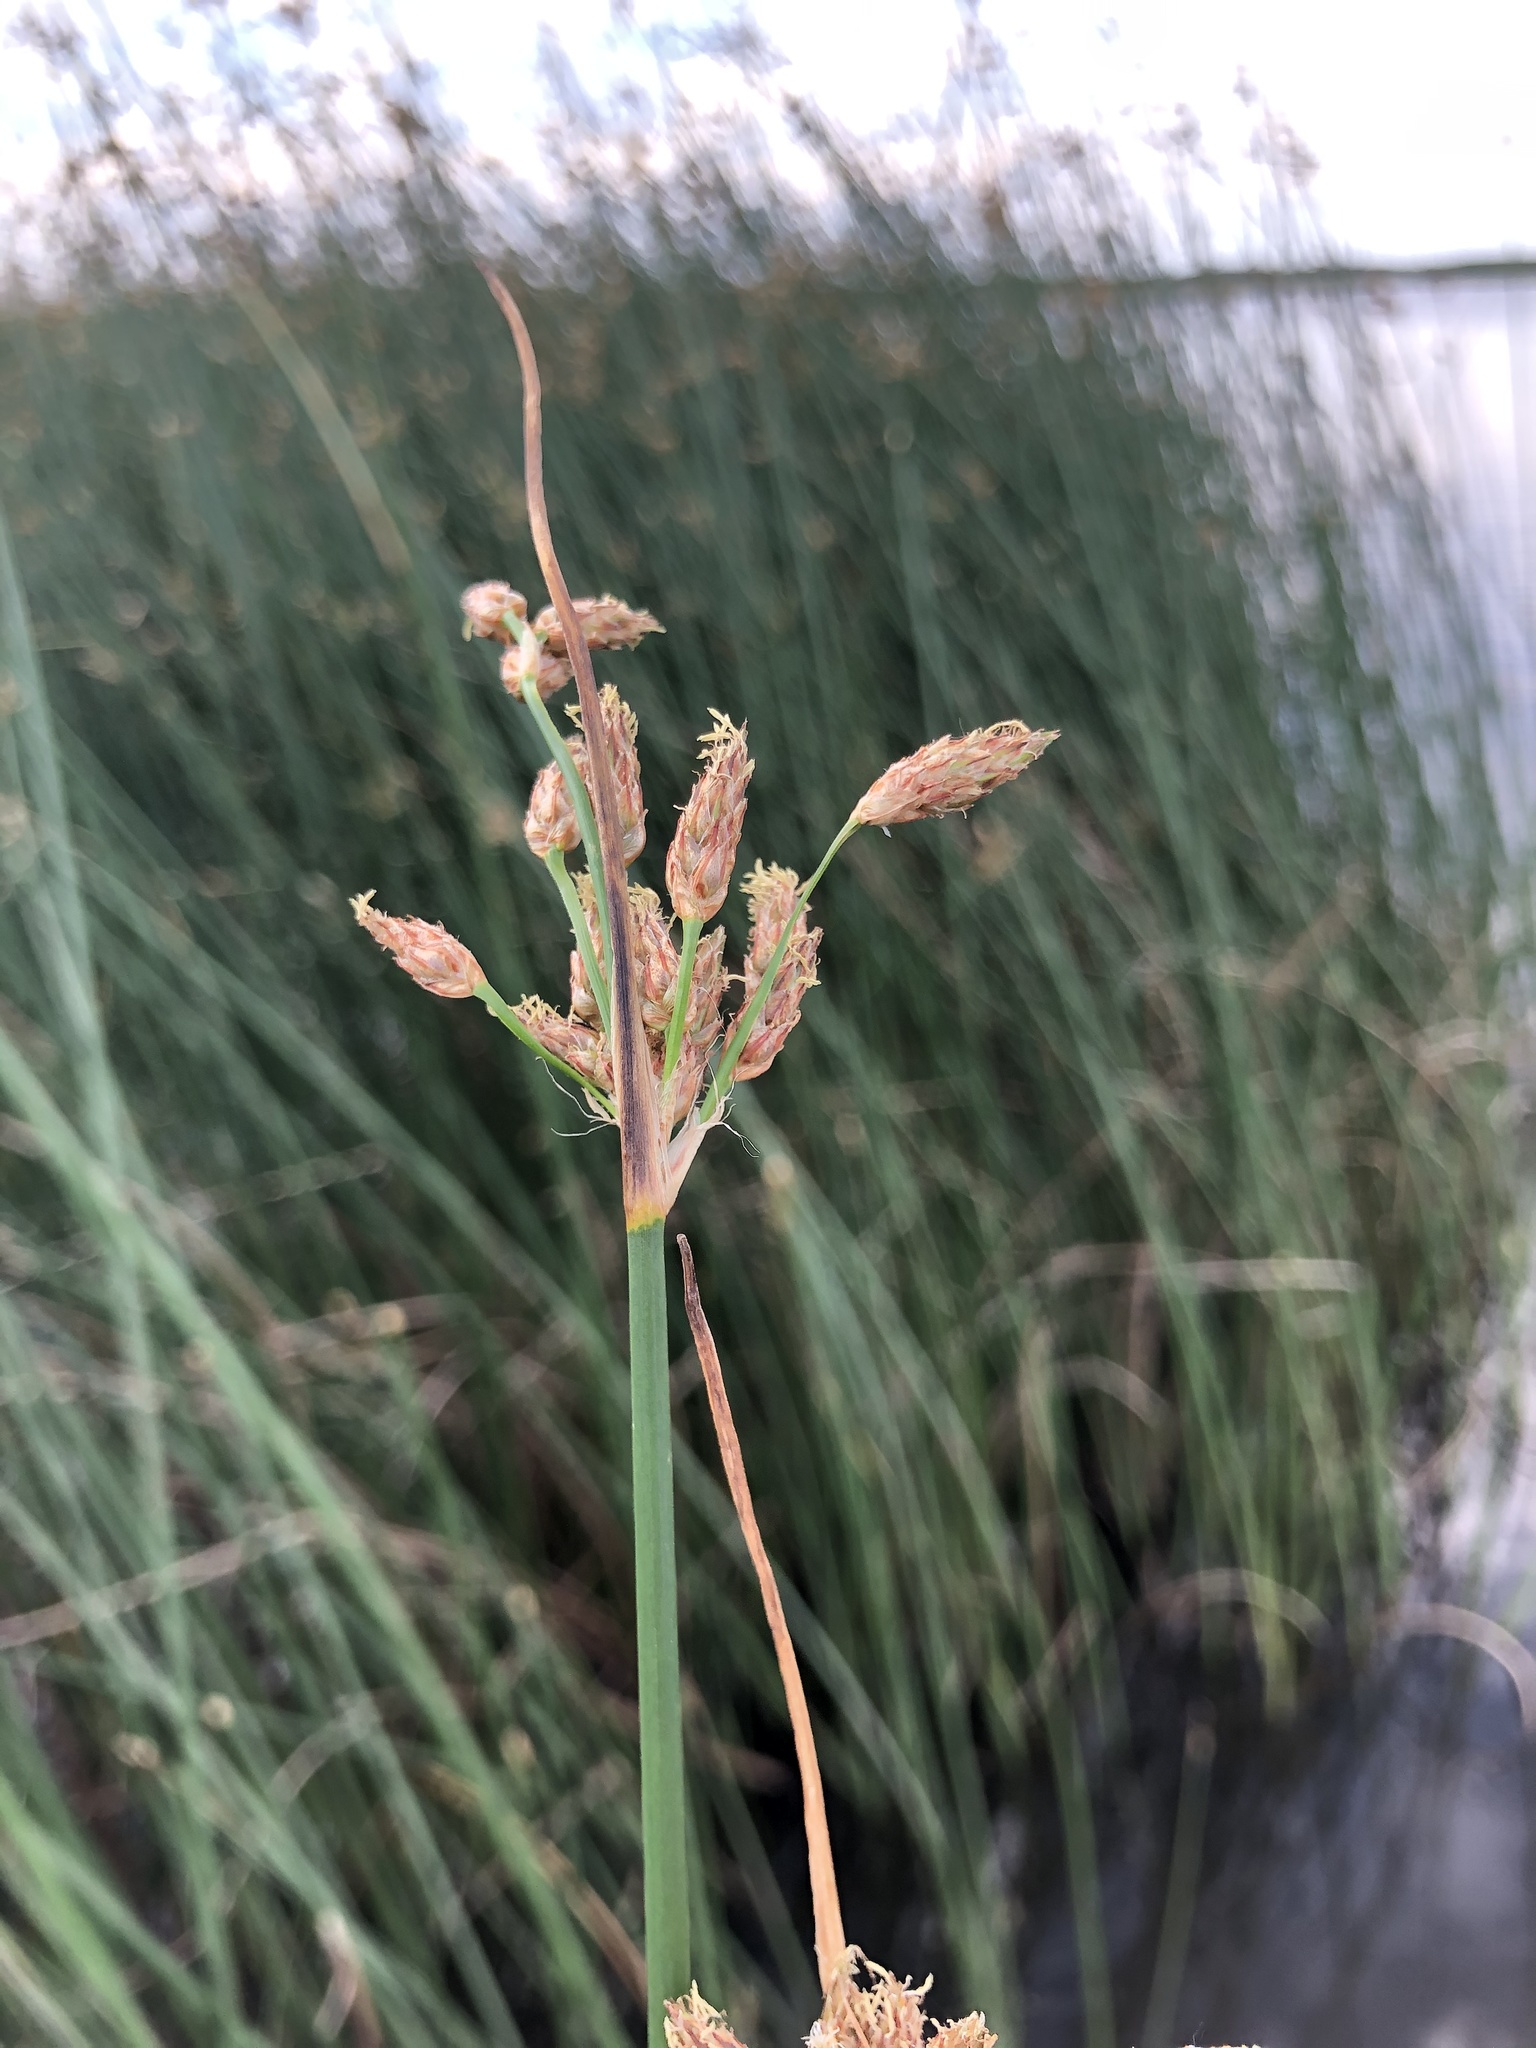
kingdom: Plantae
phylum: Tracheophyta
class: Liliopsida
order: Poales
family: Cyperaceae
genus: Schoenoplectus
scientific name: Schoenoplectus lacustris
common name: Common club-rush
